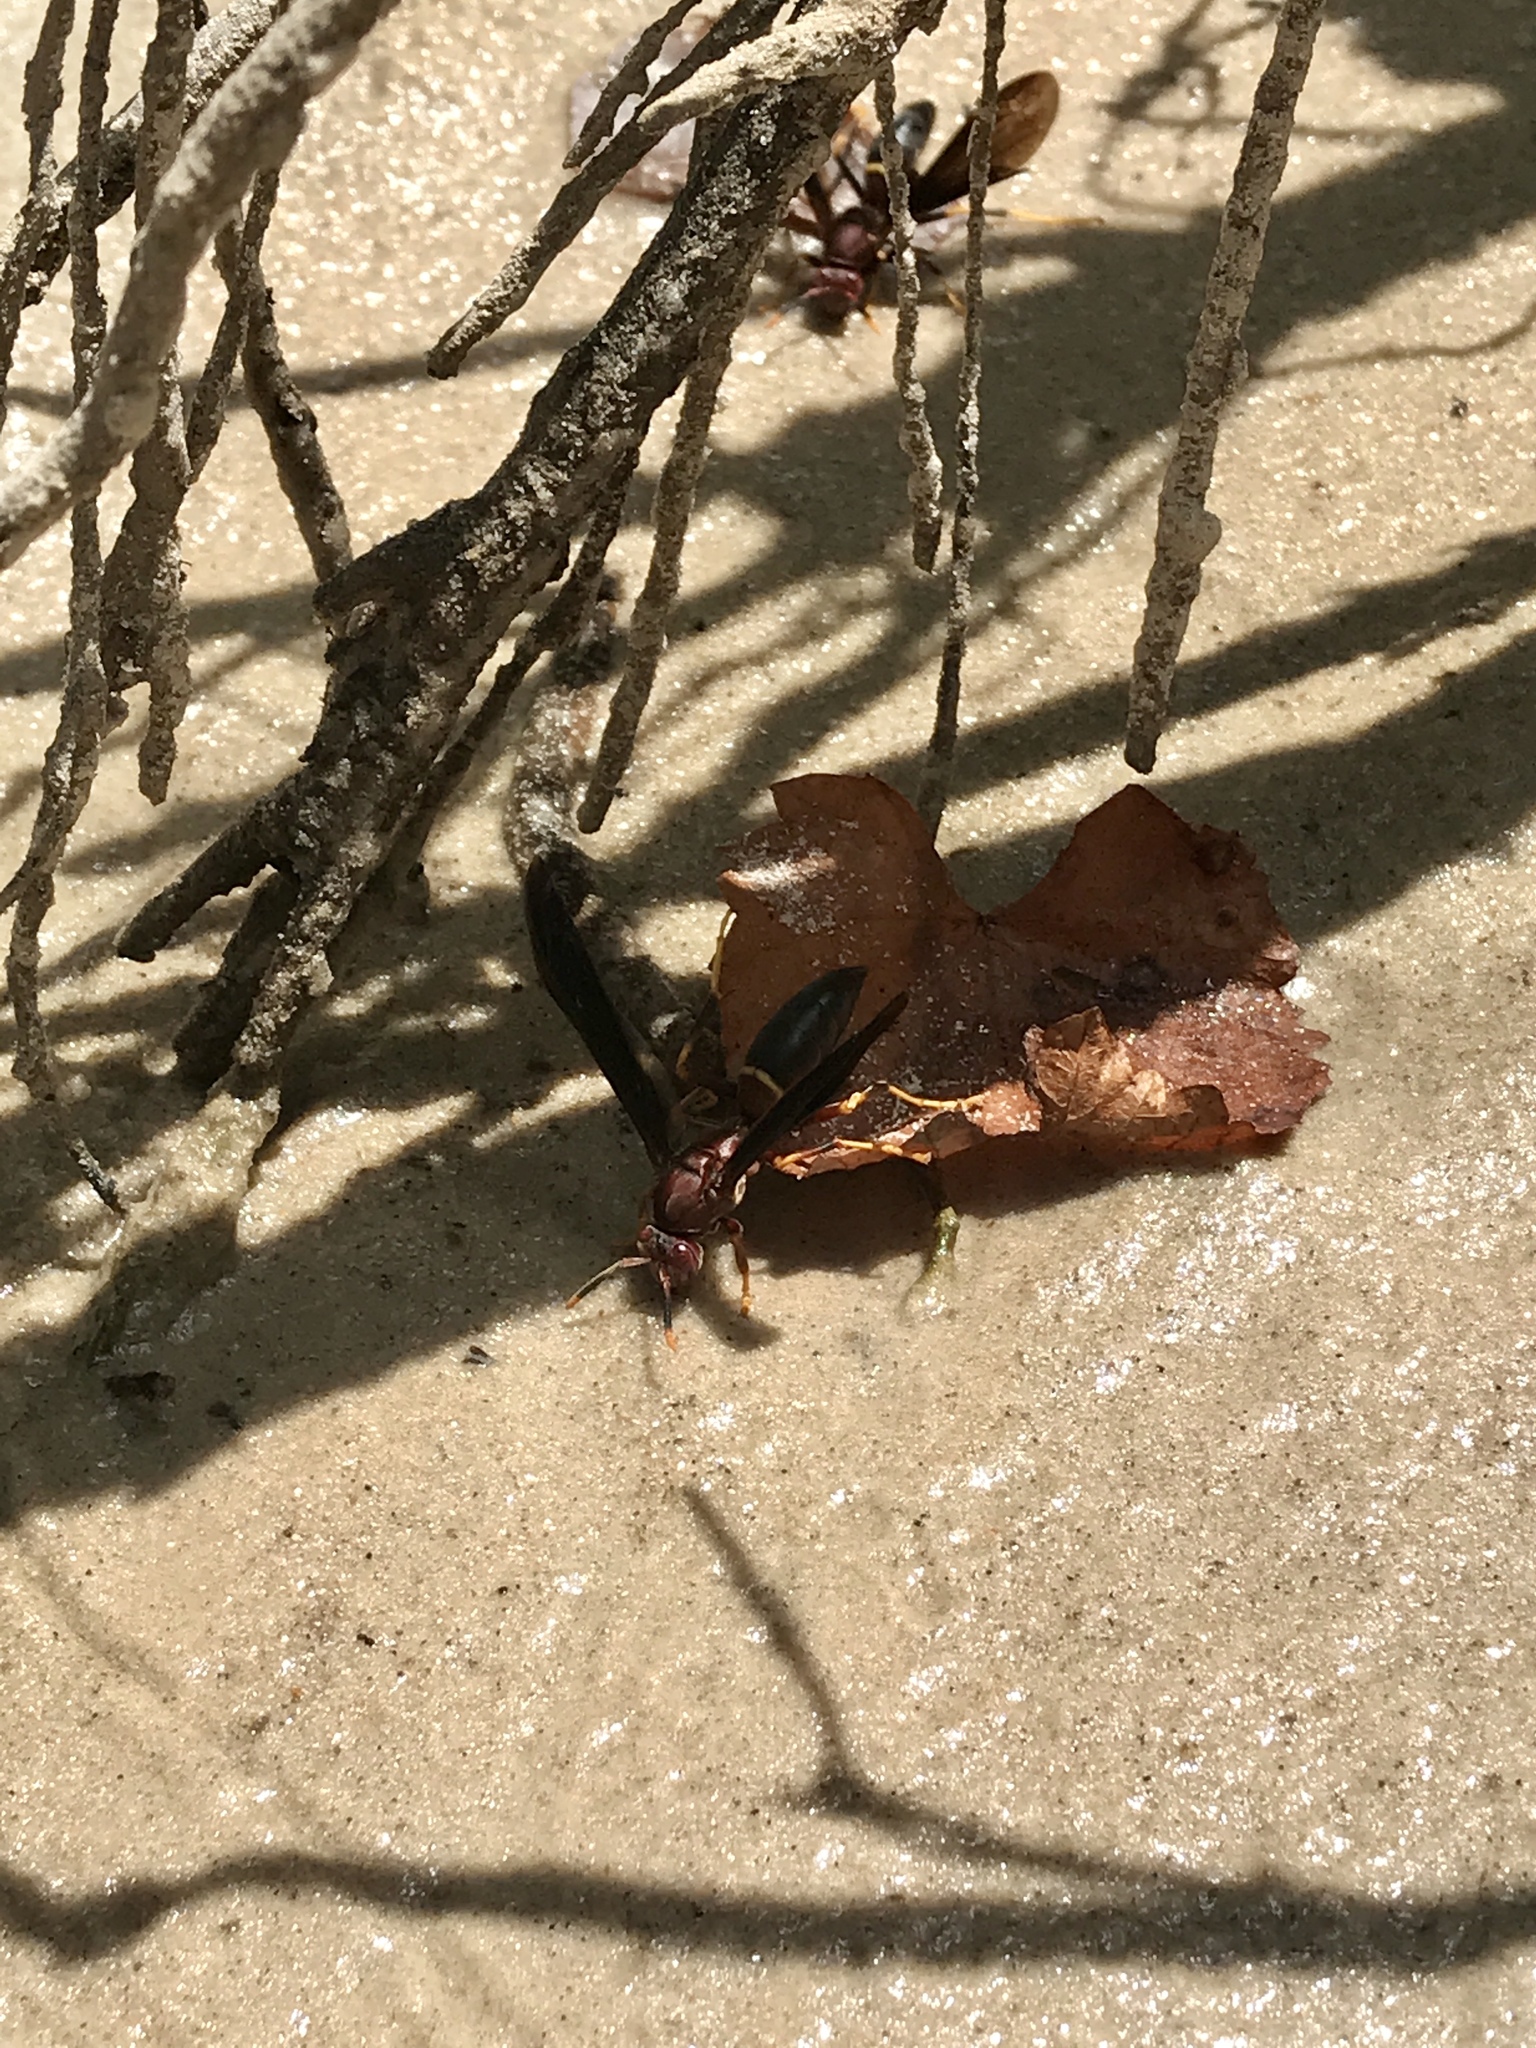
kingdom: Animalia
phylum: Arthropoda
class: Insecta
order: Hymenoptera
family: Eumenidae
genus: Polistes
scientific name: Polistes annularis
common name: Ringed paper wasp
